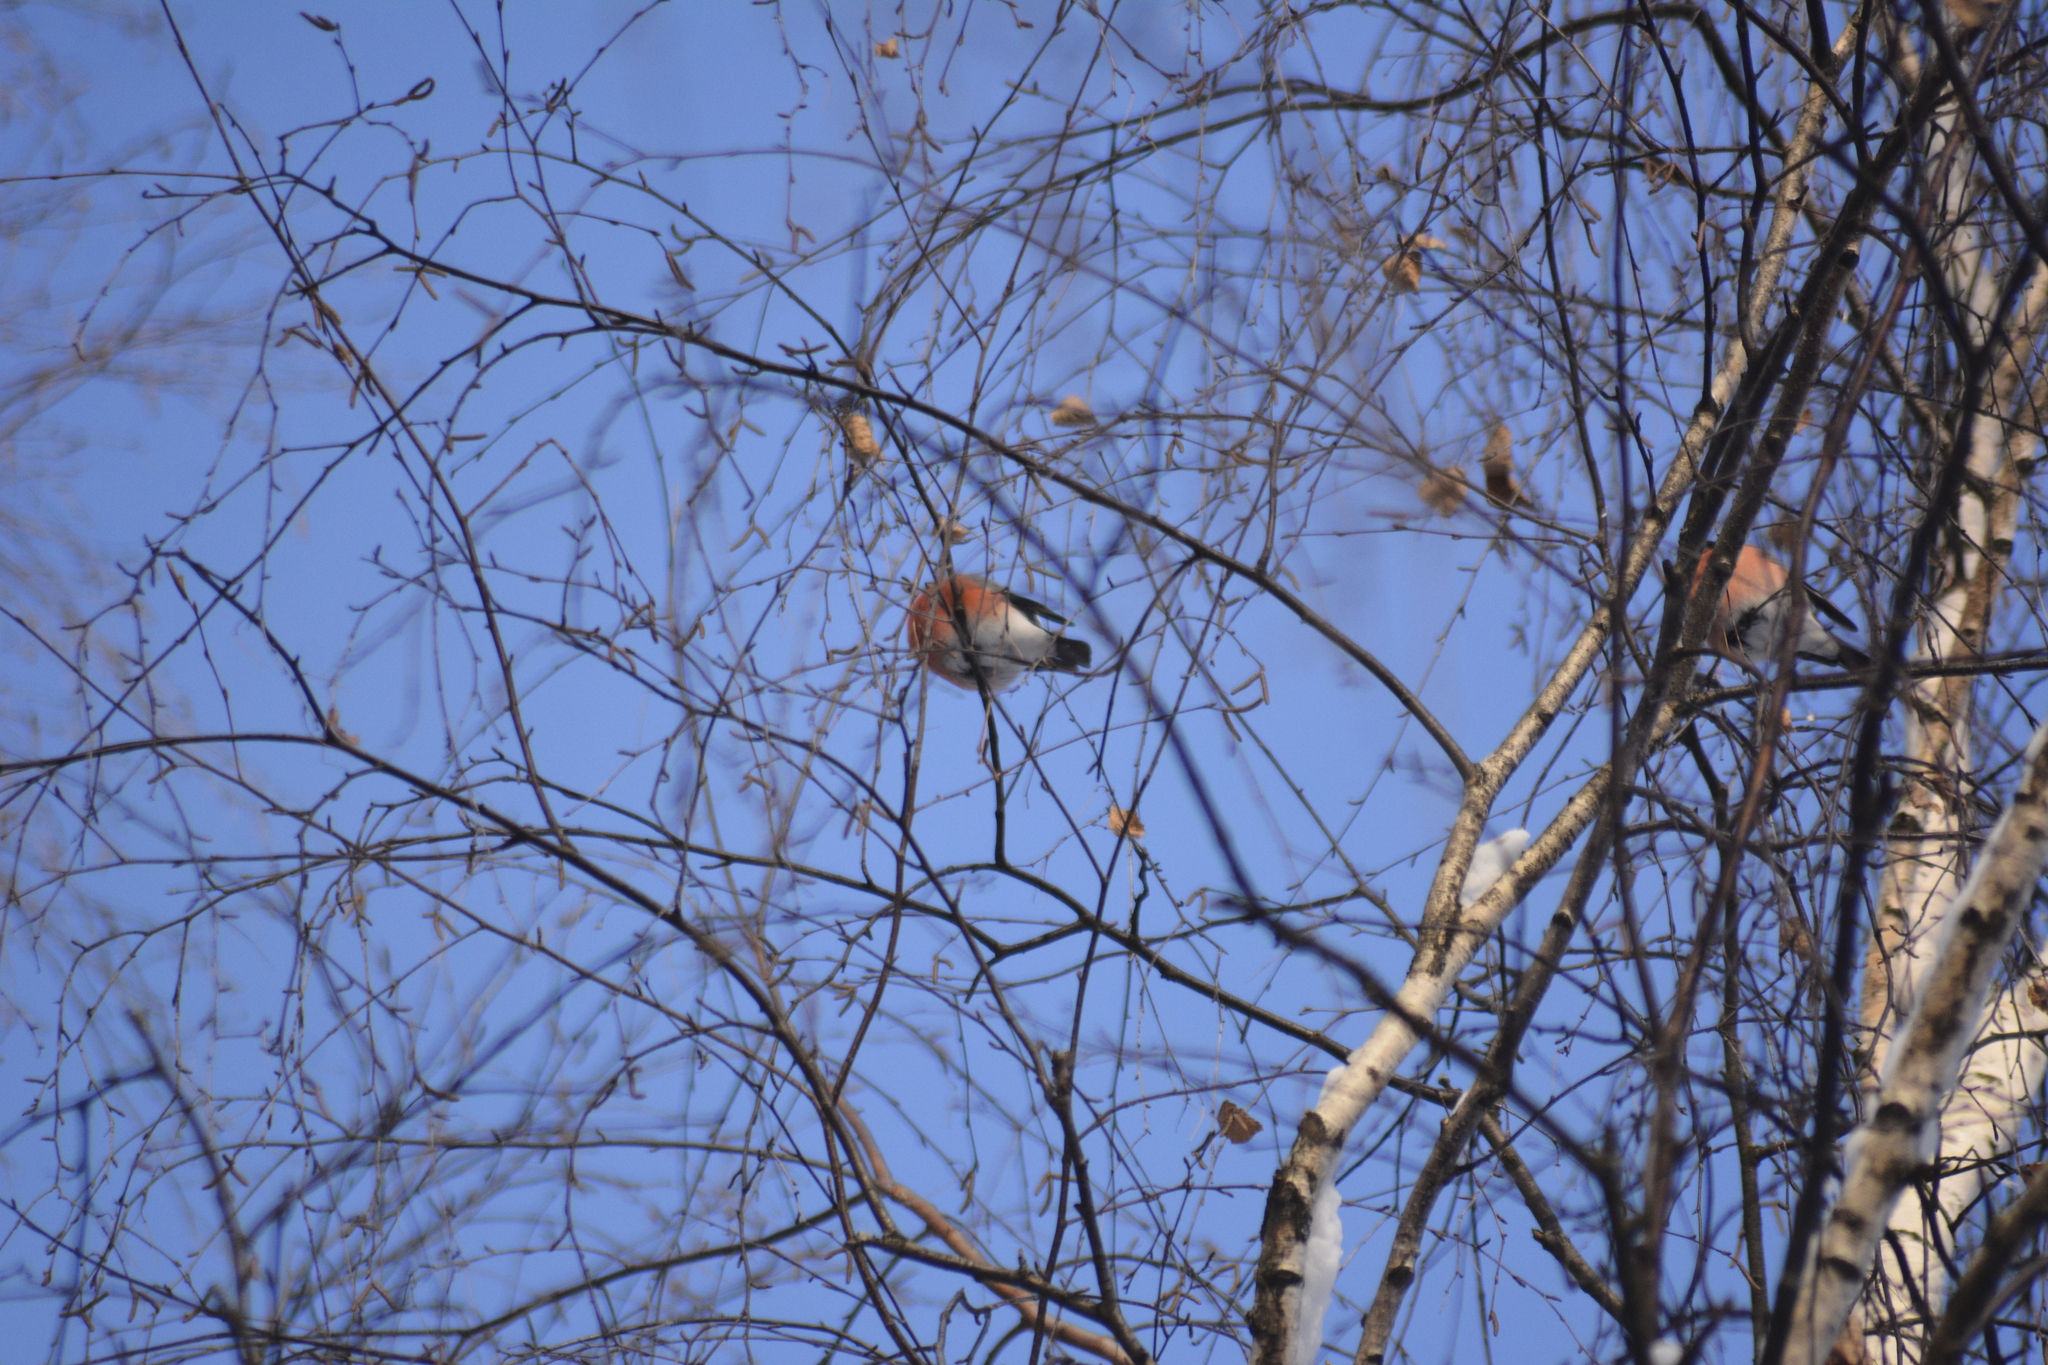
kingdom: Animalia
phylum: Chordata
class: Aves
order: Passeriformes
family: Fringillidae
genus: Pyrrhula
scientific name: Pyrrhula pyrrhula
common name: Eurasian bullfinch
